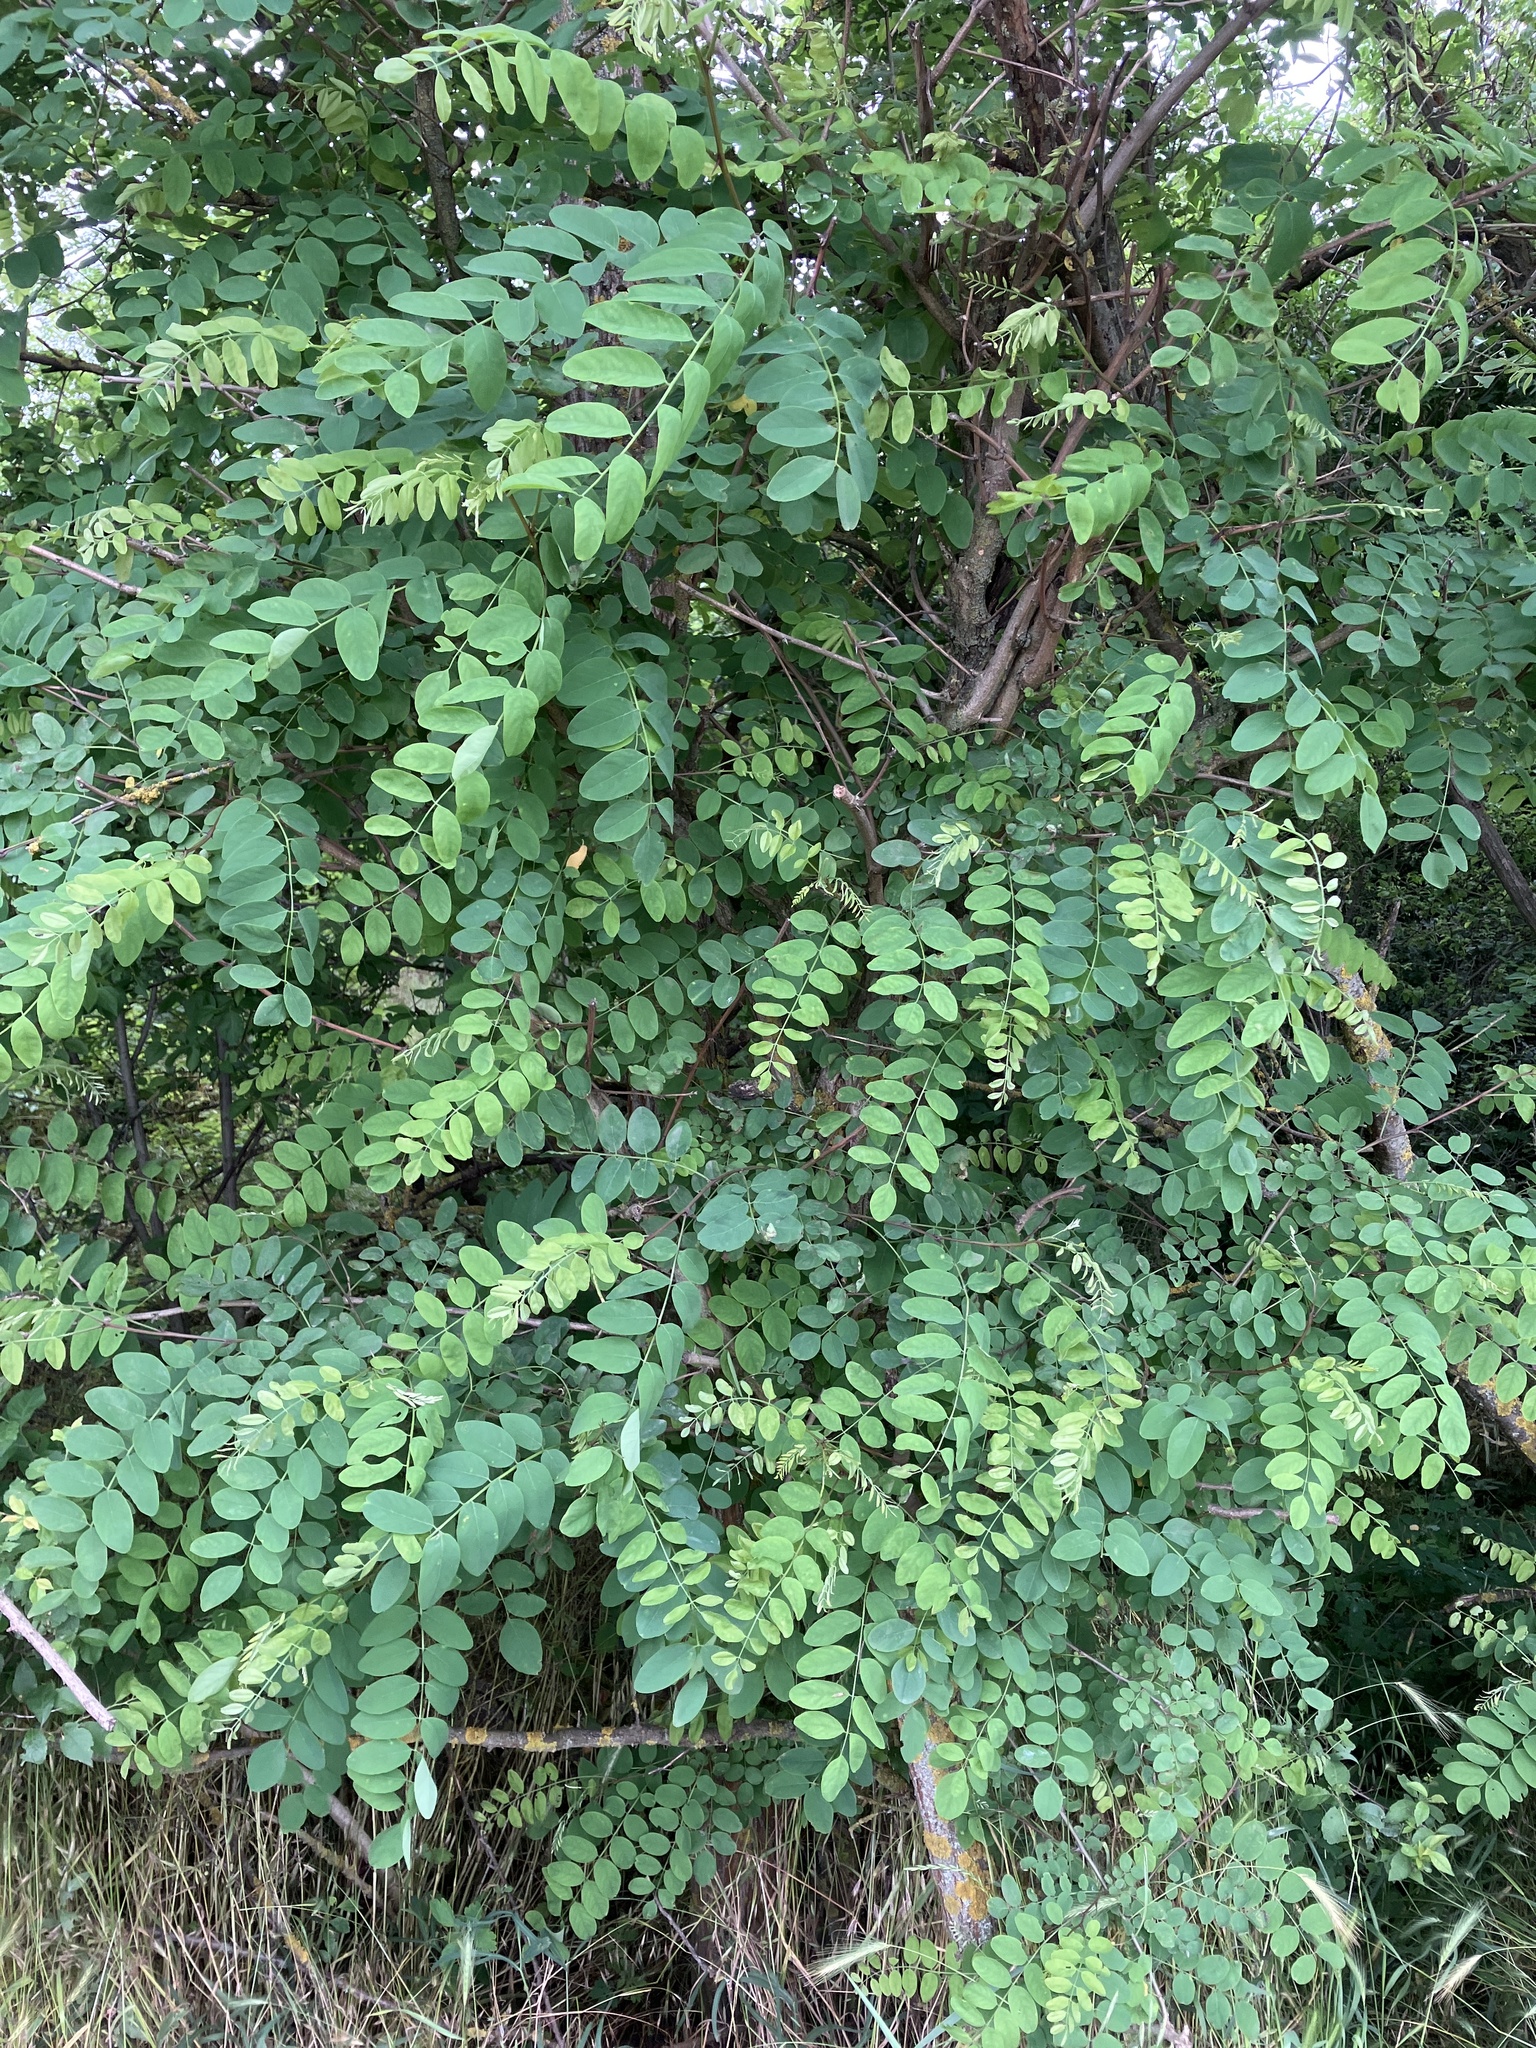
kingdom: Plantae
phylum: Tracheophyta
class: Magnoliopsida
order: Fabales
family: Fabaceae
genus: Robinia
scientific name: Robinia pseudoacacia
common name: Black locust
